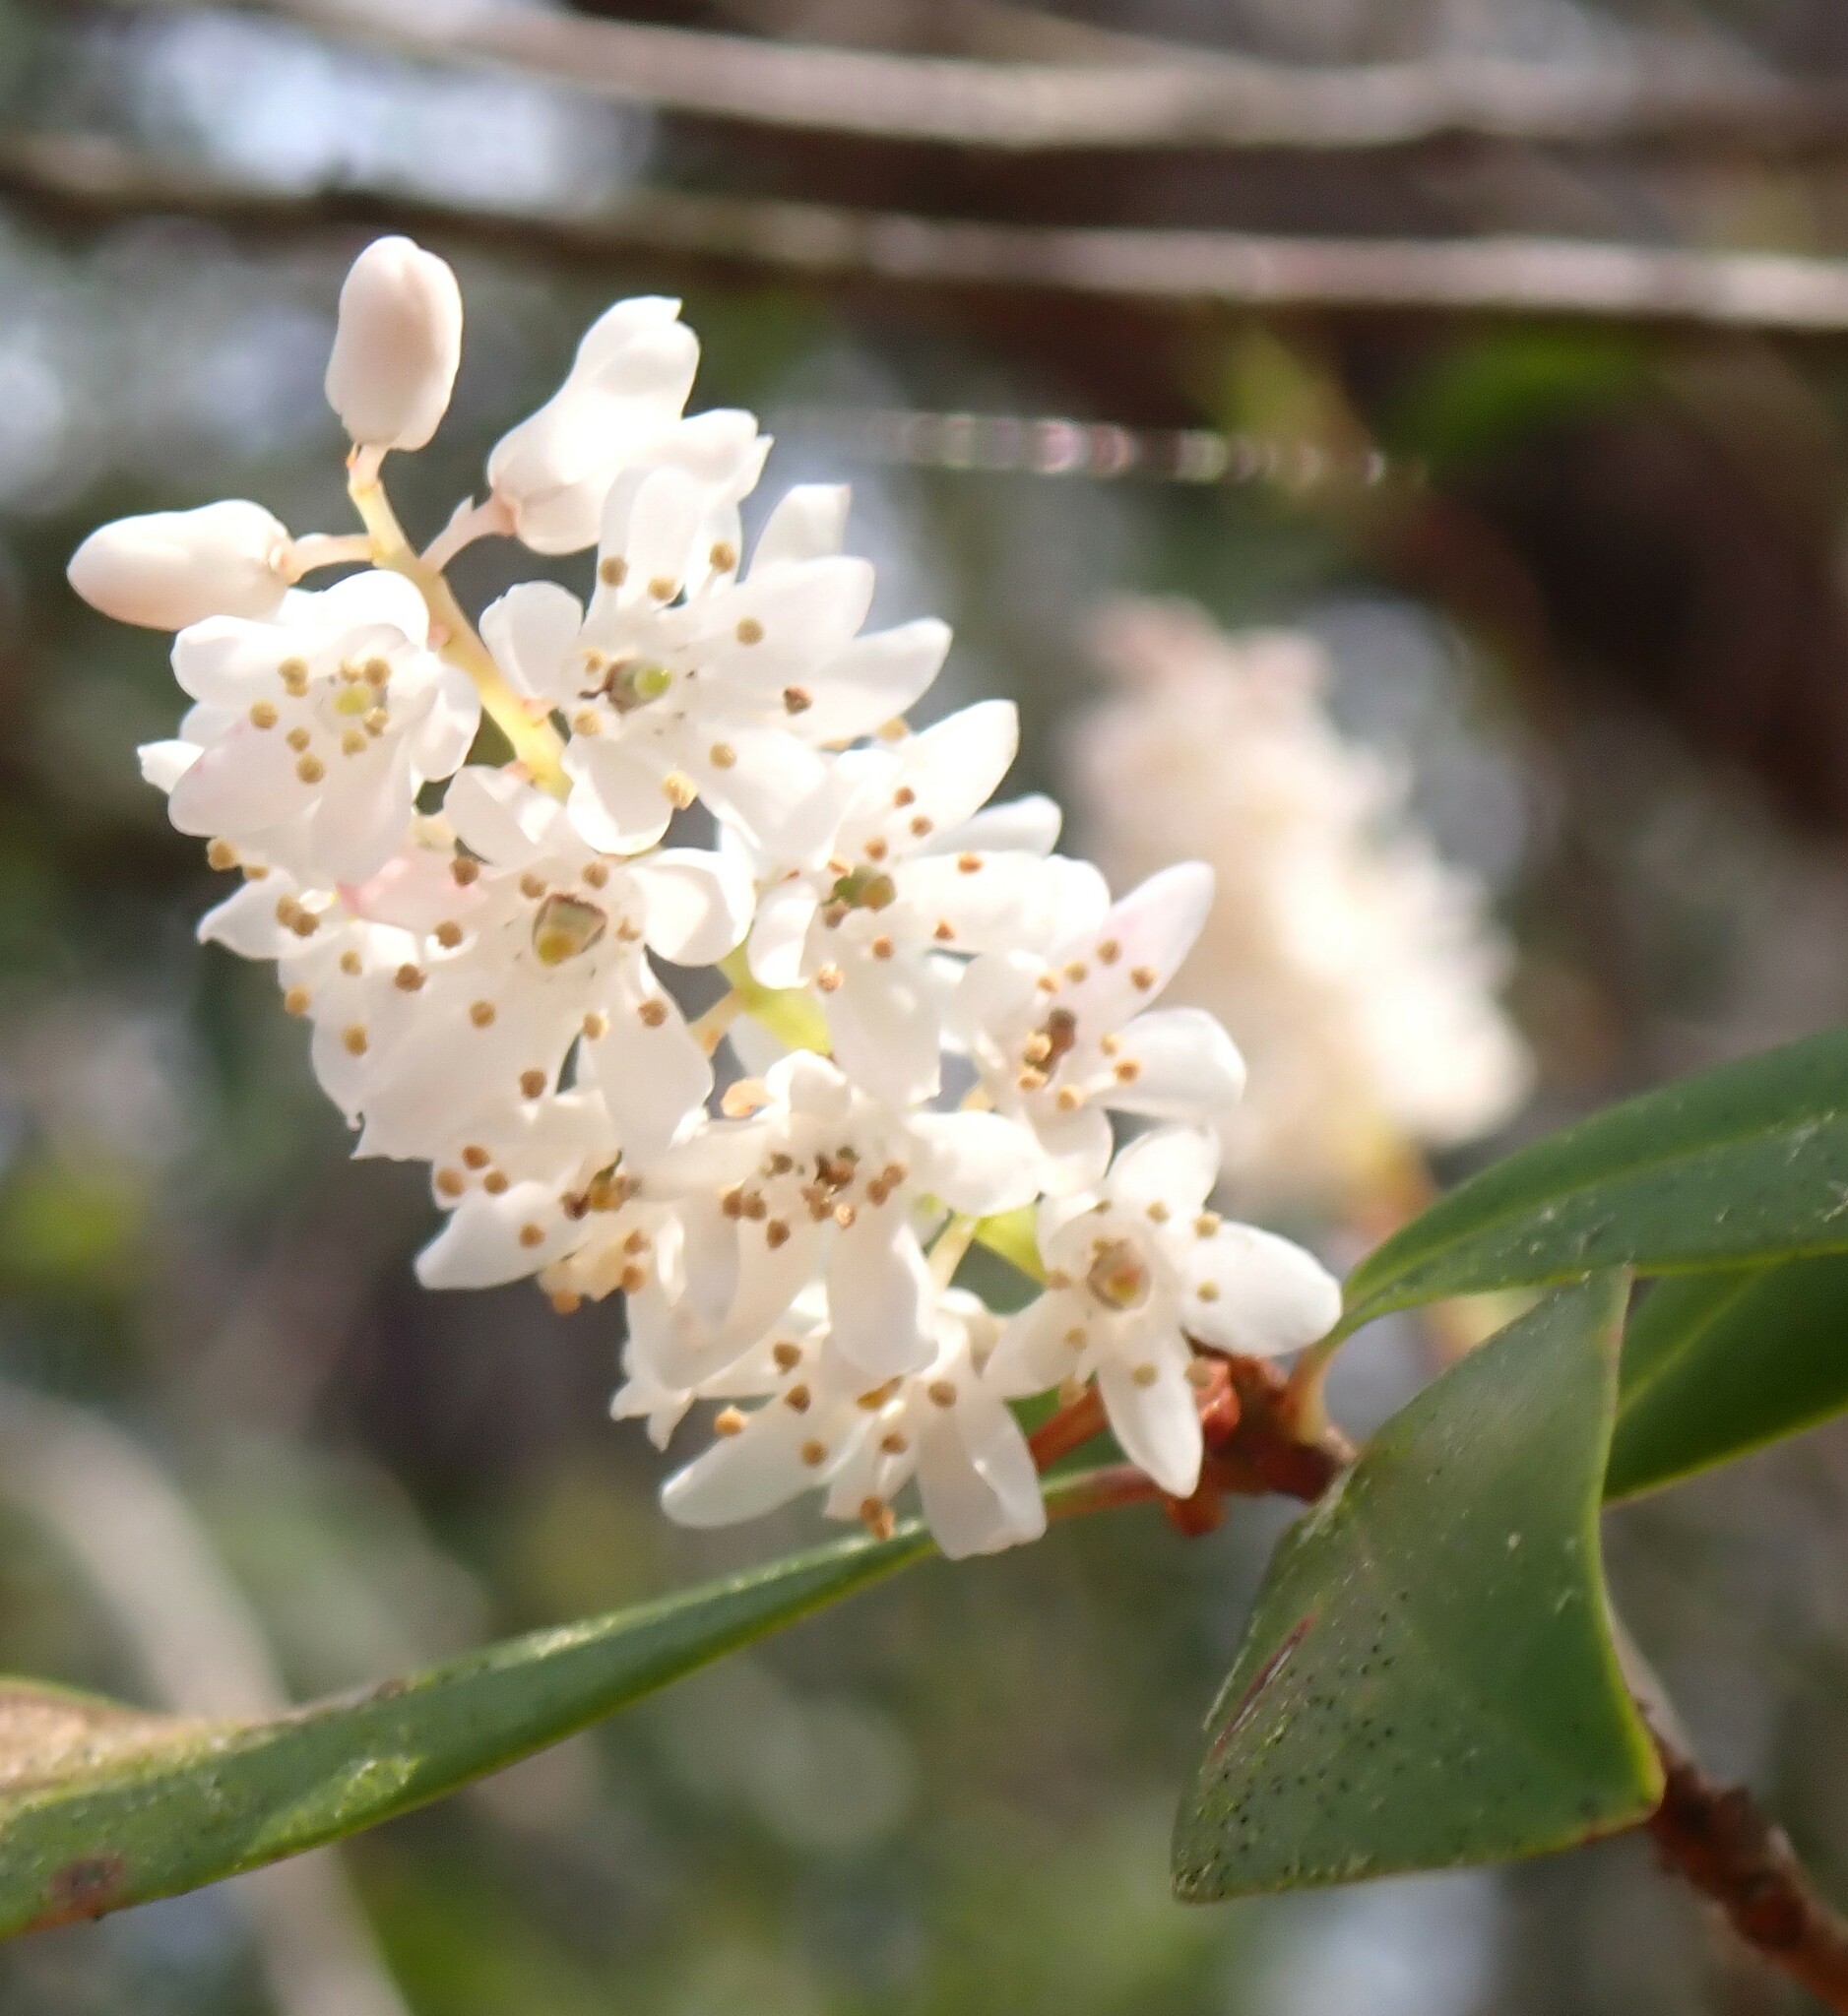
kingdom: Plantae
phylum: Tracheophyta
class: Magnoliopsida
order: Ericales
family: Cyrillaceae
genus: Cliftonia
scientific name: Cliftonia monophylla
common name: Titi
